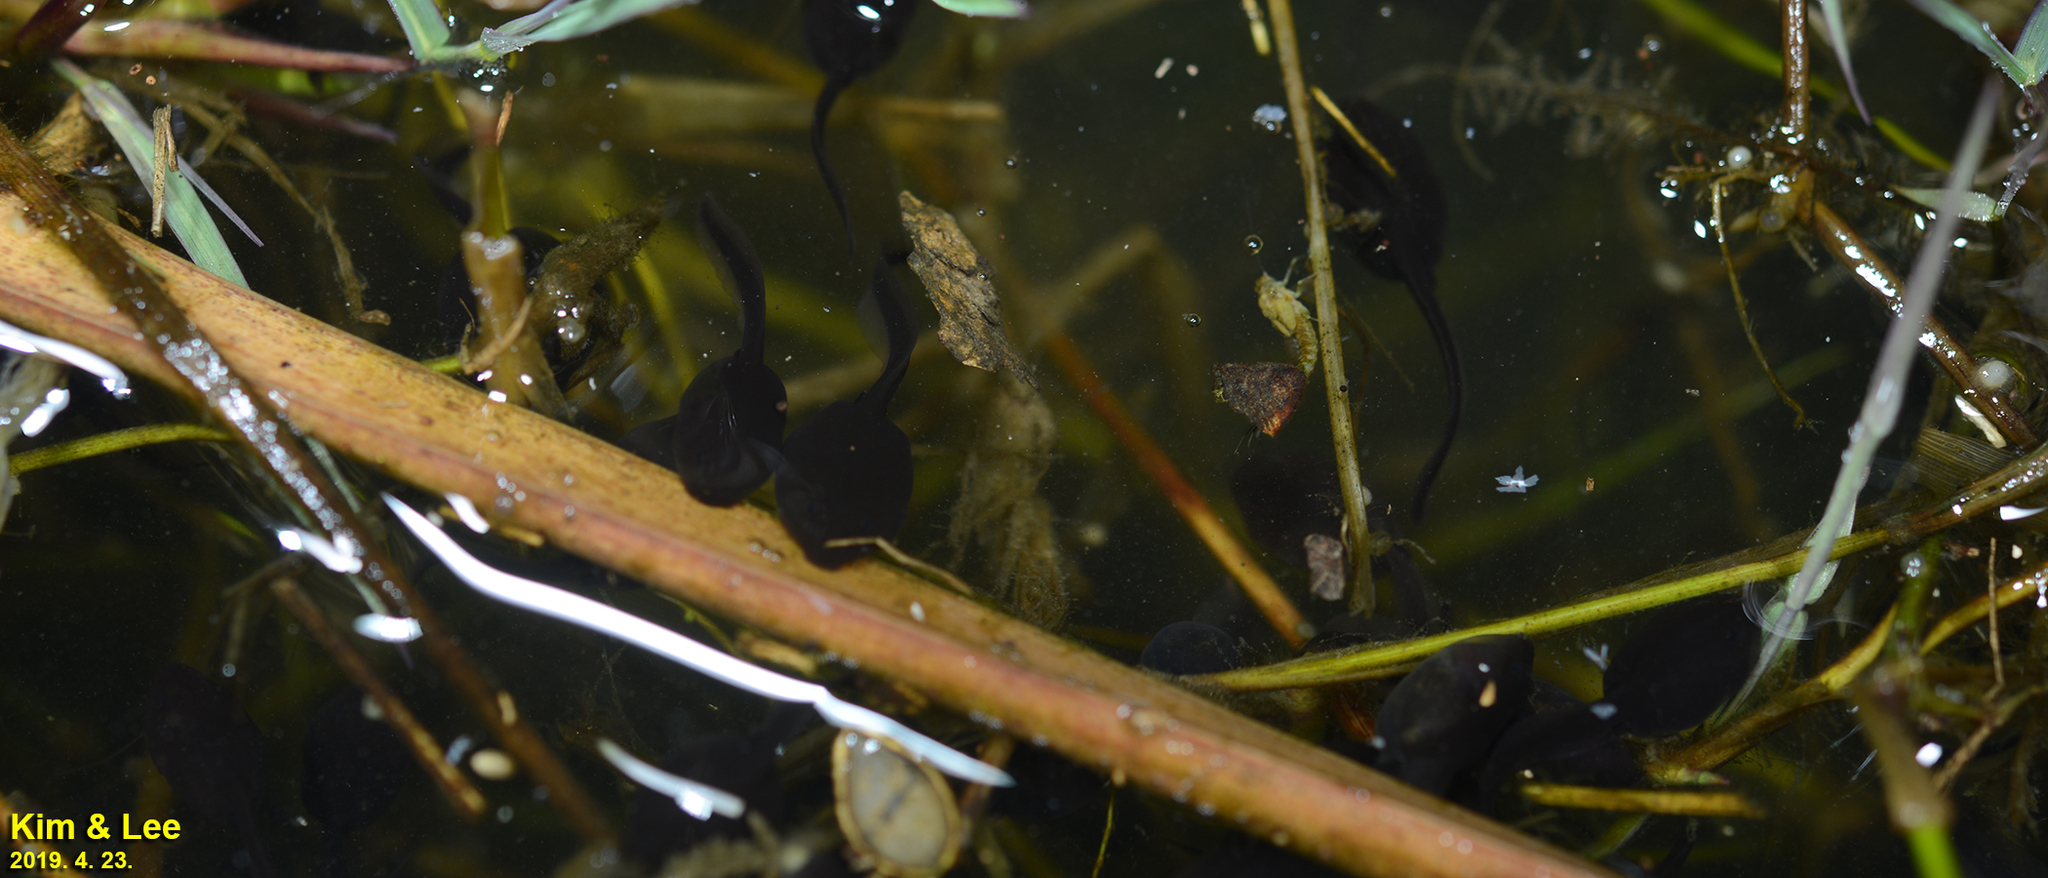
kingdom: Animalia
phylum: Chordata
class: Amphibia
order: Anura
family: Bufonidae
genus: Bufo
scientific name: Bufo gargarizans
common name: Asiatic toad
